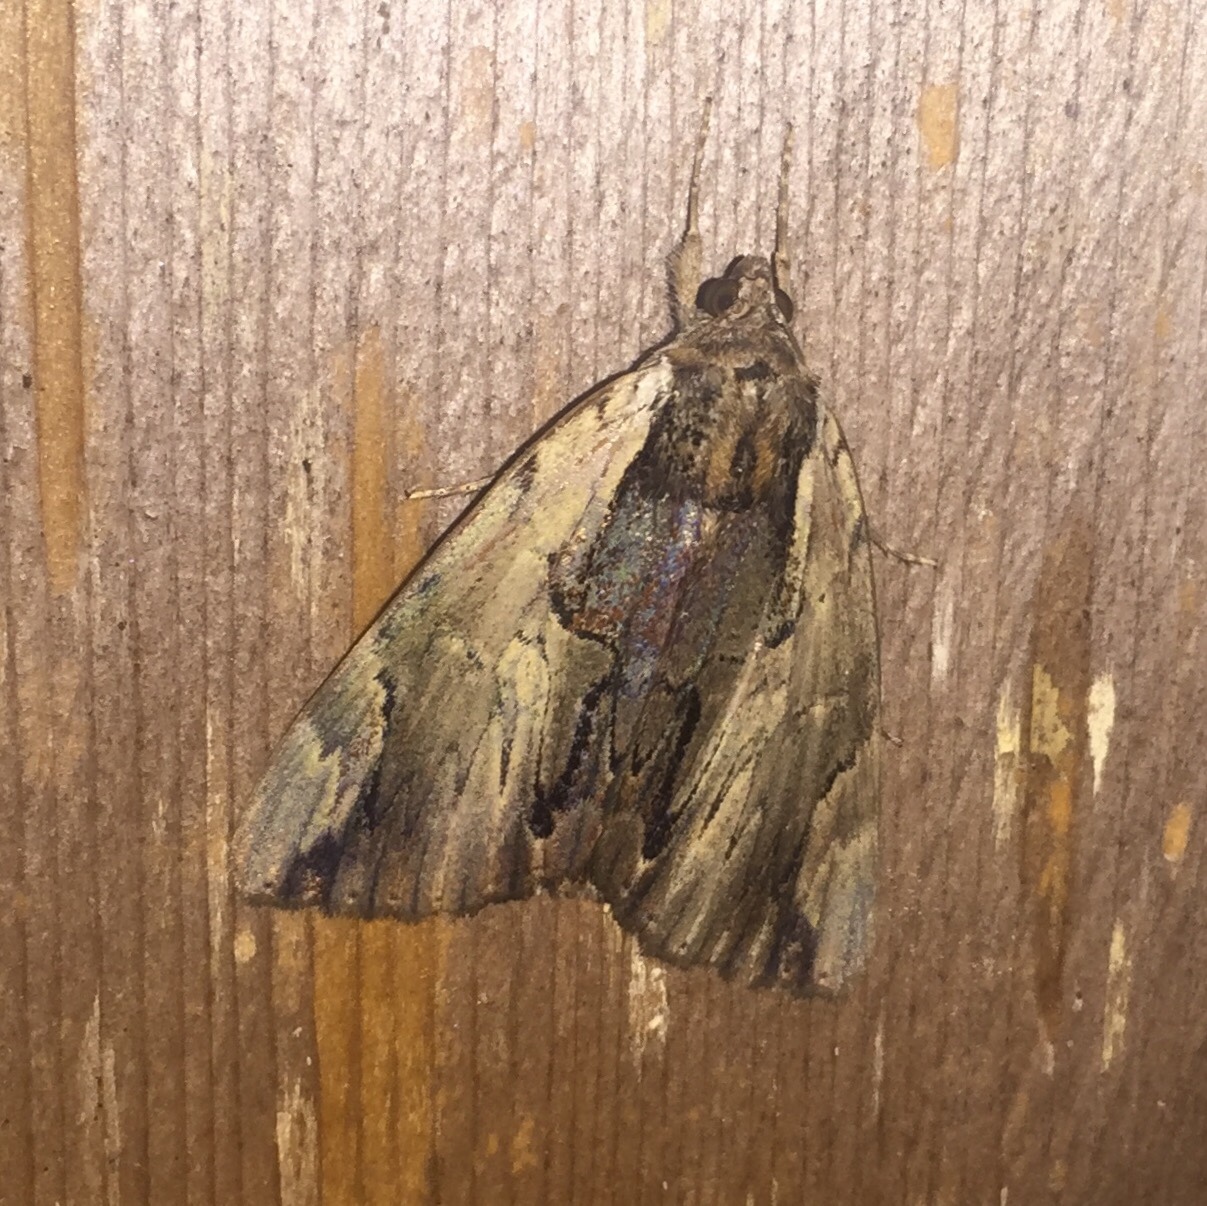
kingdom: Animalia
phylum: Arthropoda
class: Insecta
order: Lepidoptera
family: Erebidae
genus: Catocala
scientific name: Catocala ultronia
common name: Ultronia underwing
